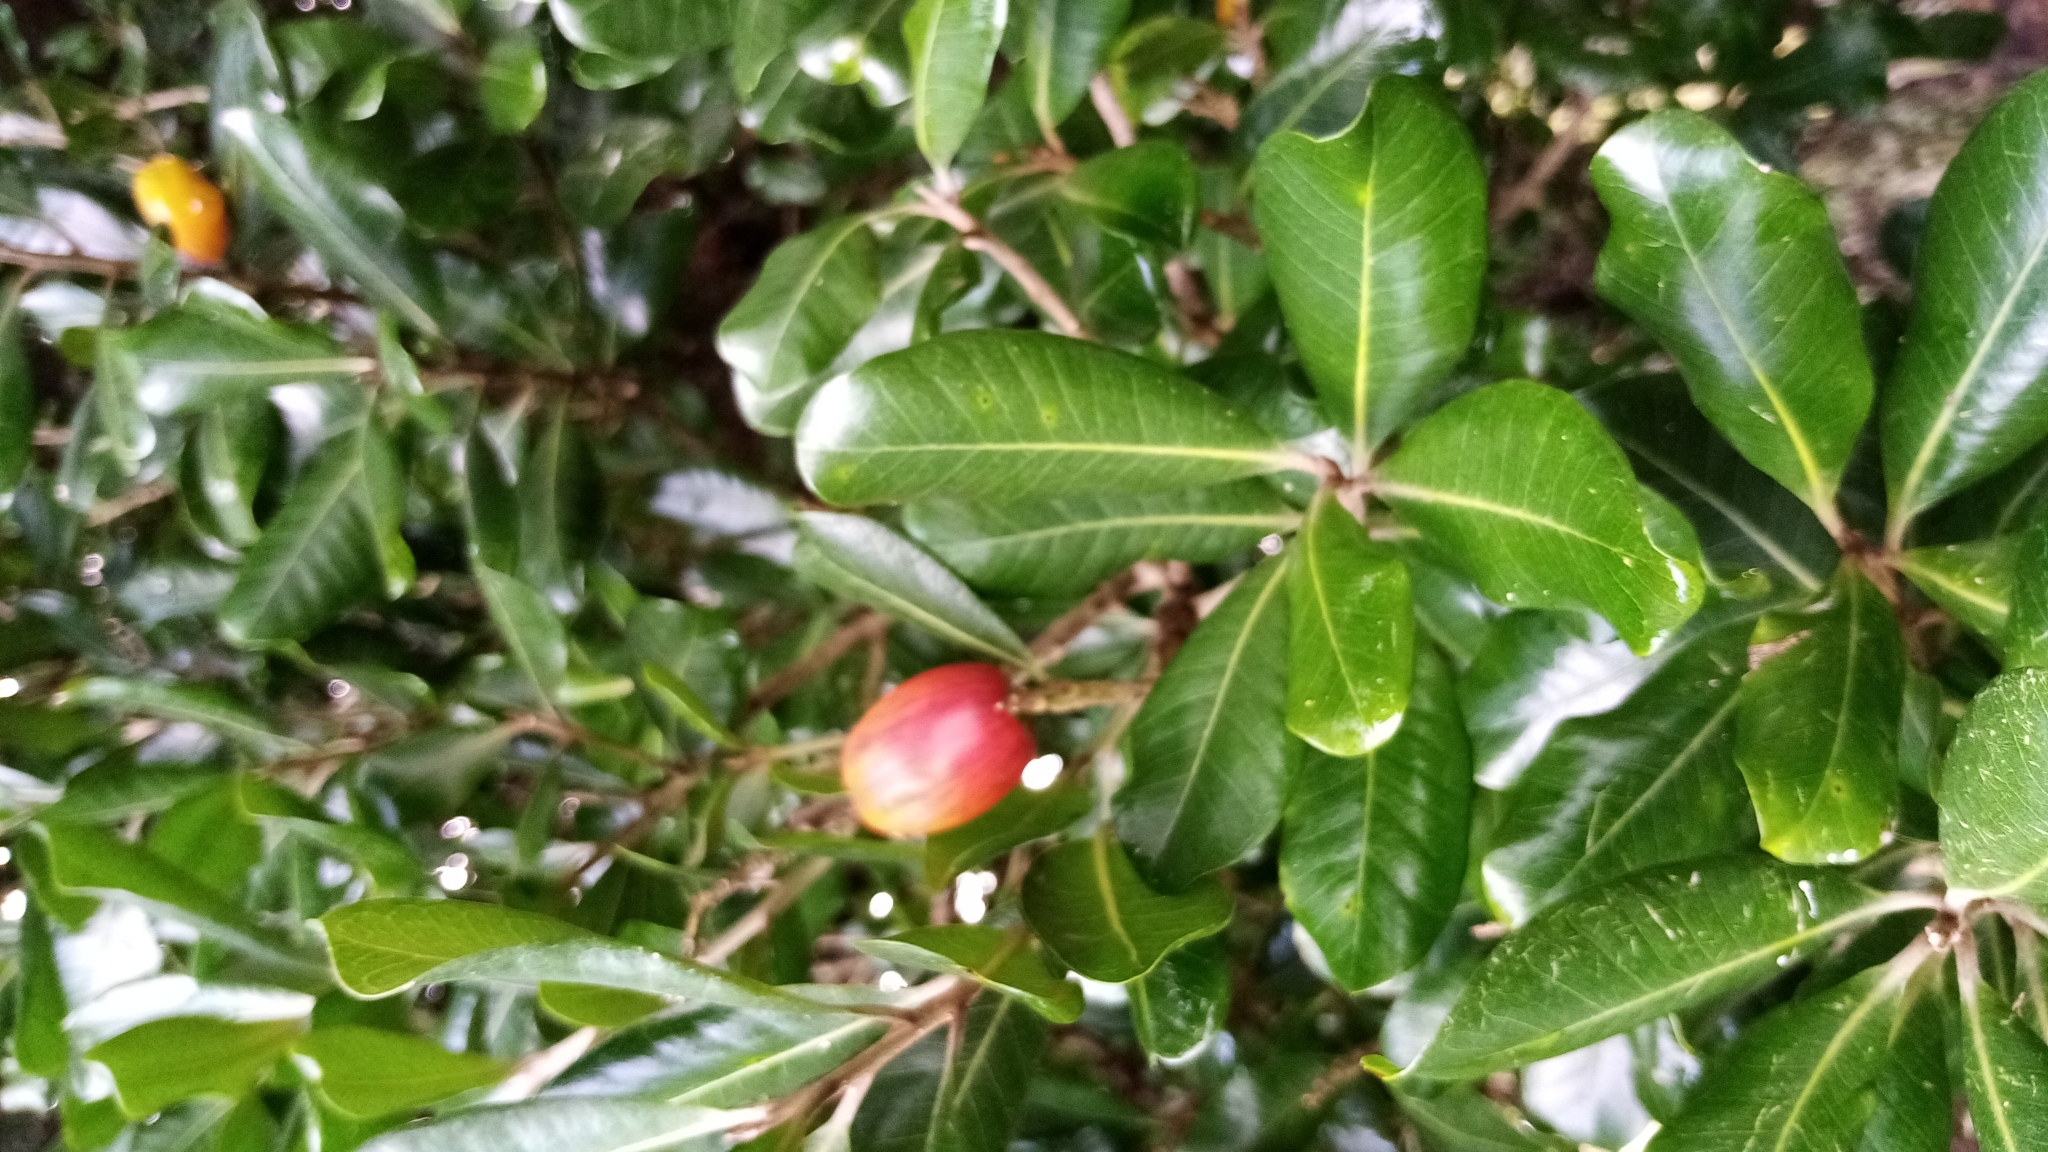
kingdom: Plantae
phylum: Tracheophyta
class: Magnoliopsida
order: Ericales
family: Sapotaceae
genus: Planchonella
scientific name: Planchonella costata
